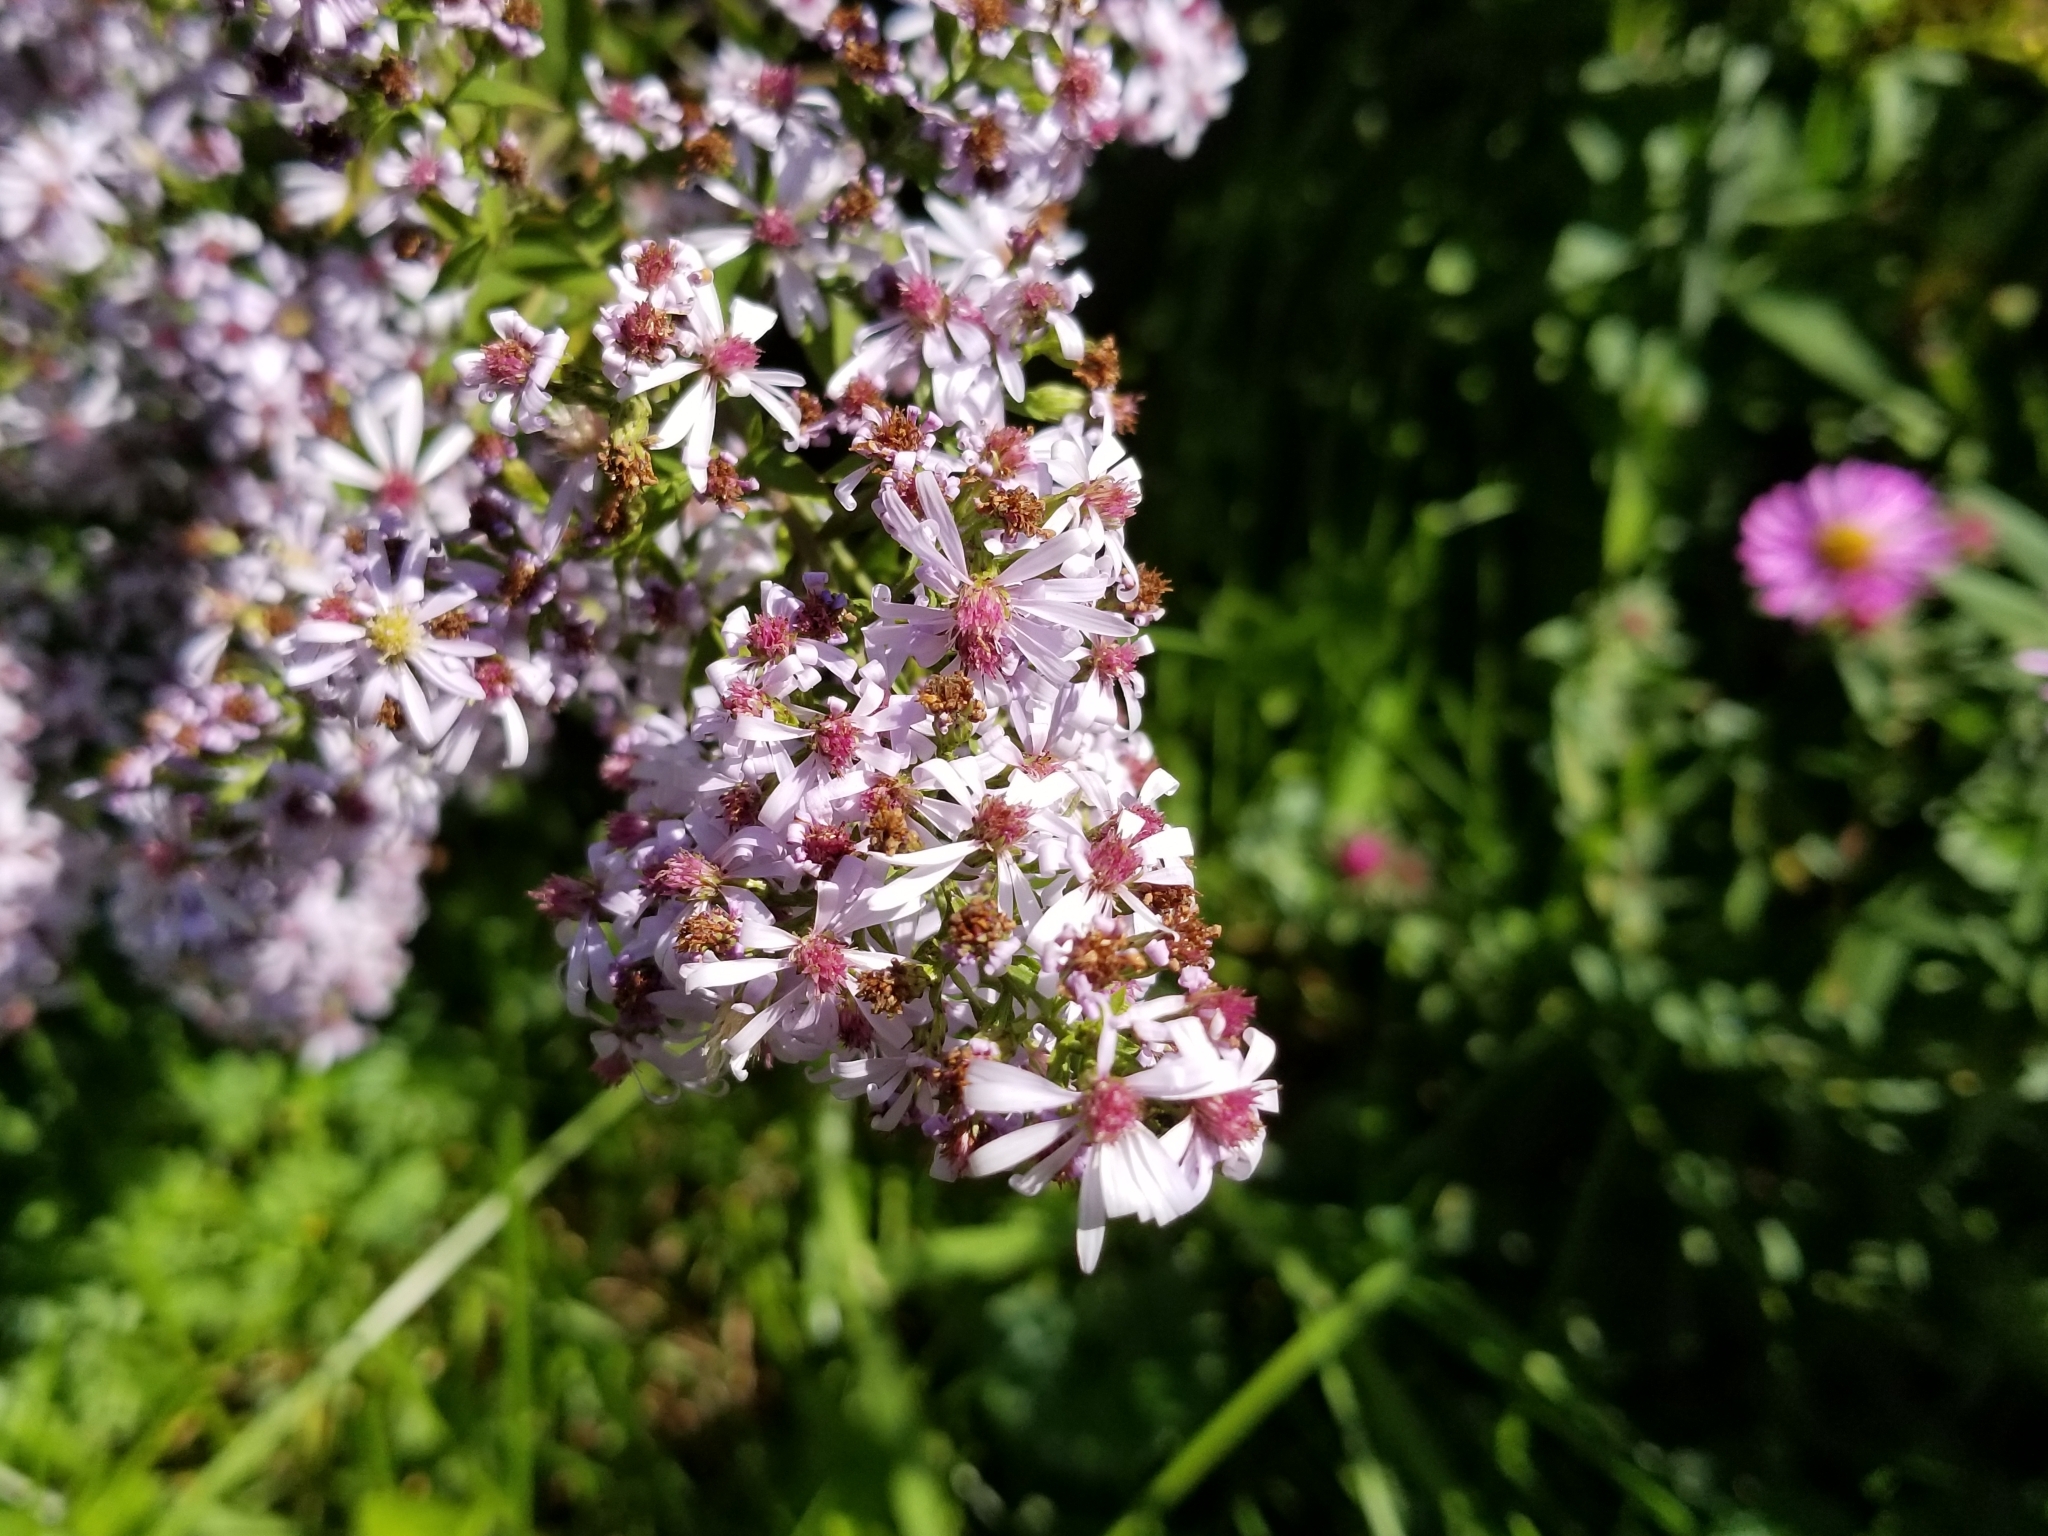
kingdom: Plantae
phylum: Tracheophyta
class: Magnoliopsida
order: Asterales
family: Asteraceae
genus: Symphyotrichum
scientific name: Symphyotrichum cordifolium
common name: Beeweed
